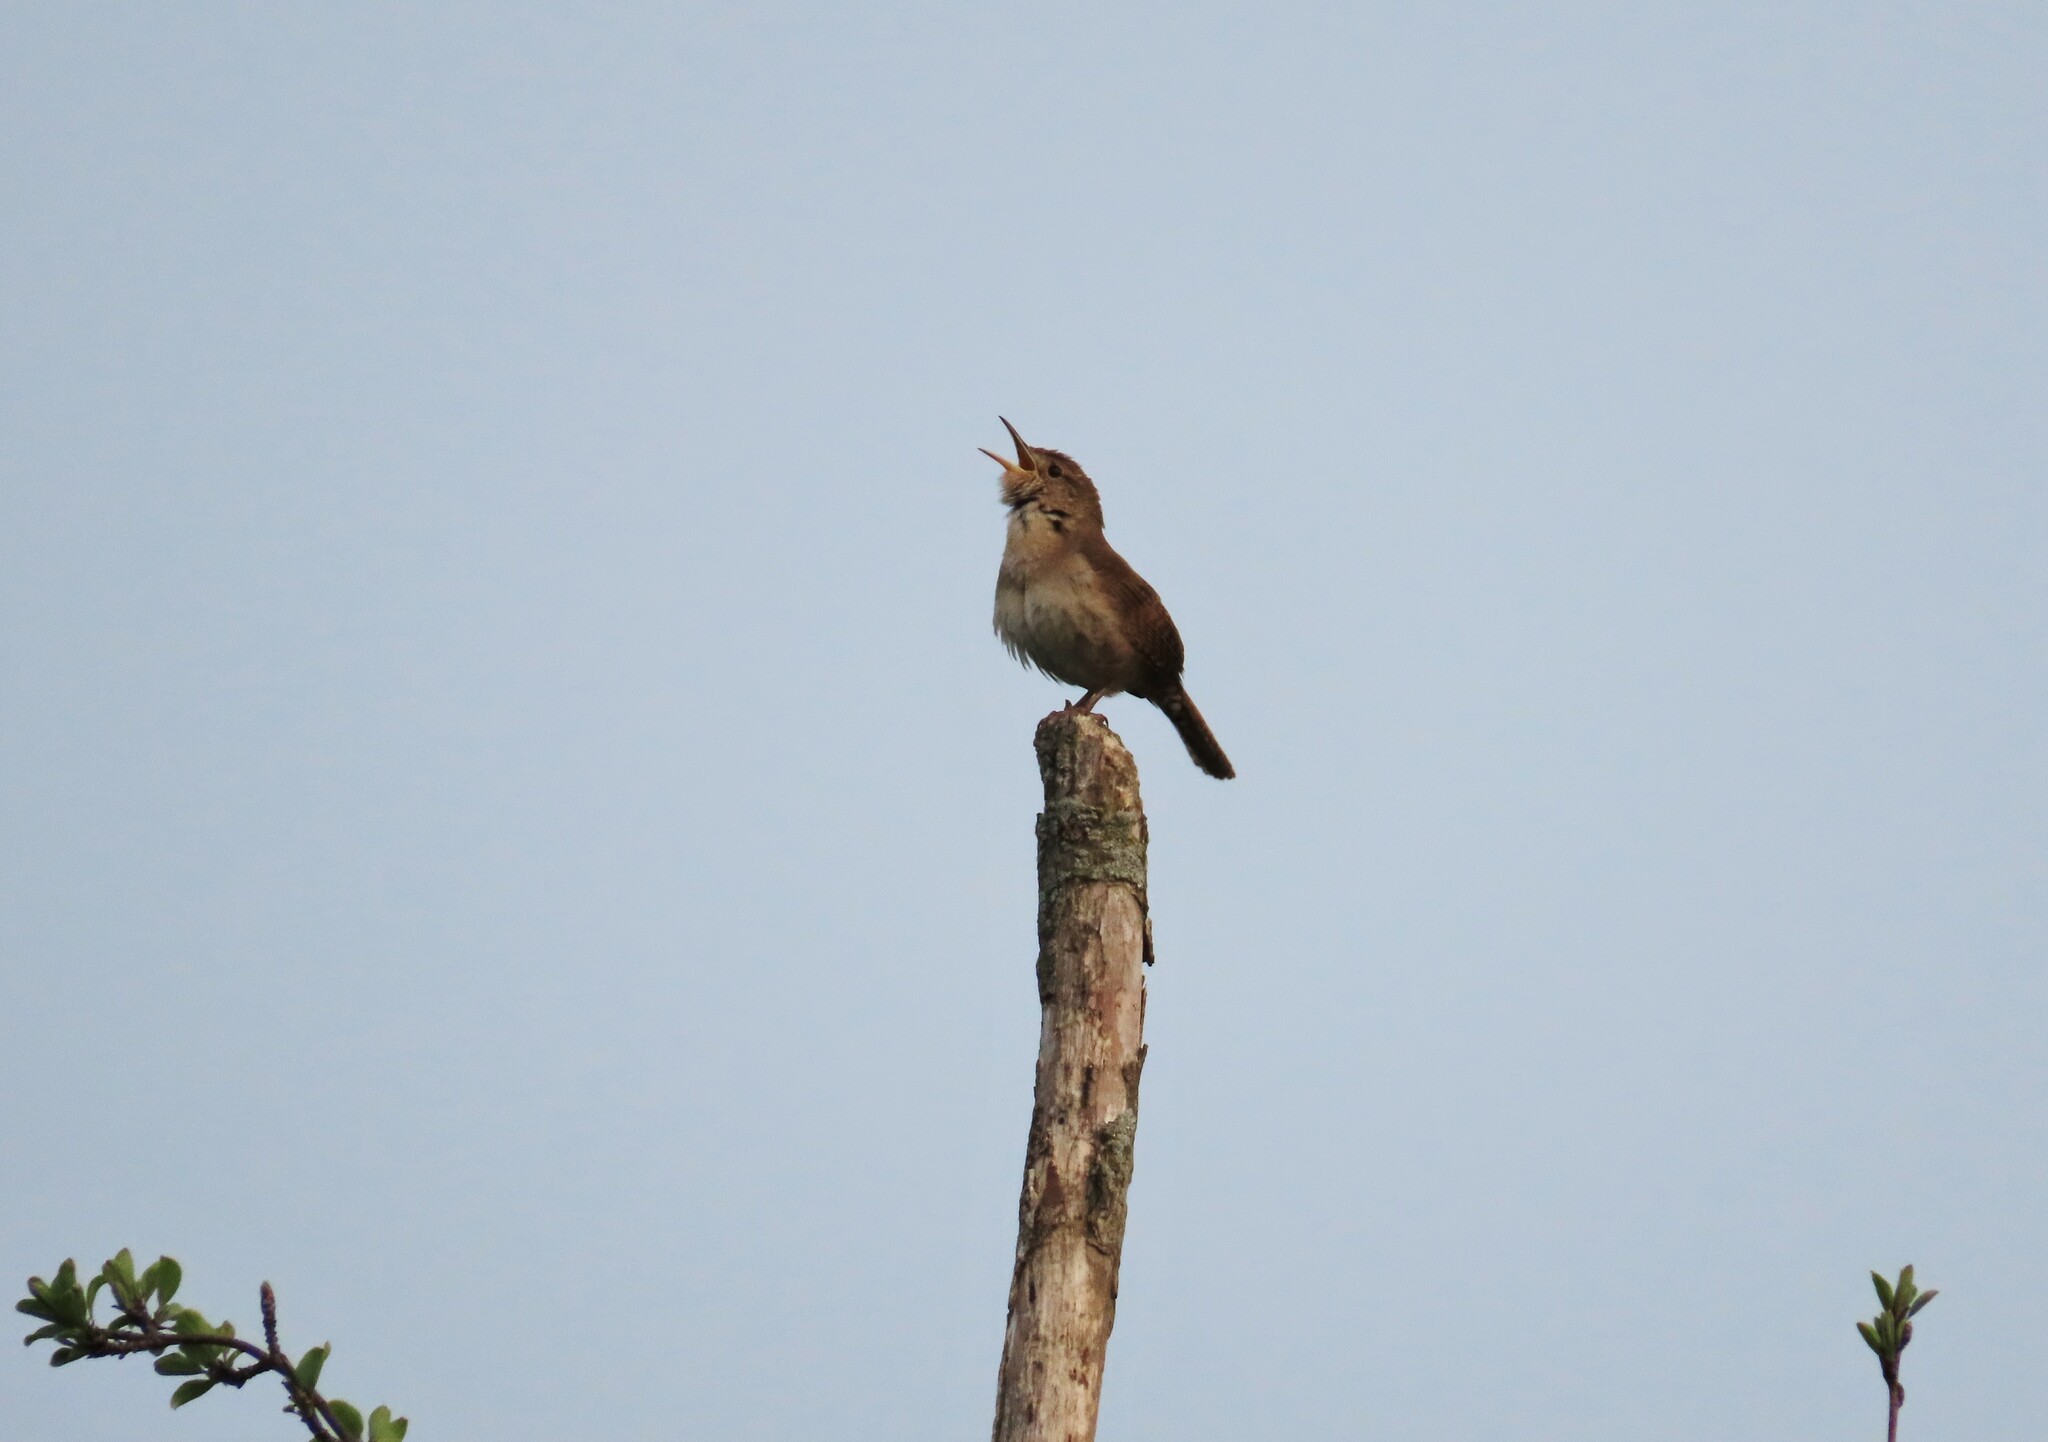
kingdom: Animalia
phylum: Chordata
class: Aves
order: Passeriformes
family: Troglodytidae
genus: Troglodytes
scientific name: Troglodytes aedon
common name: House wren
